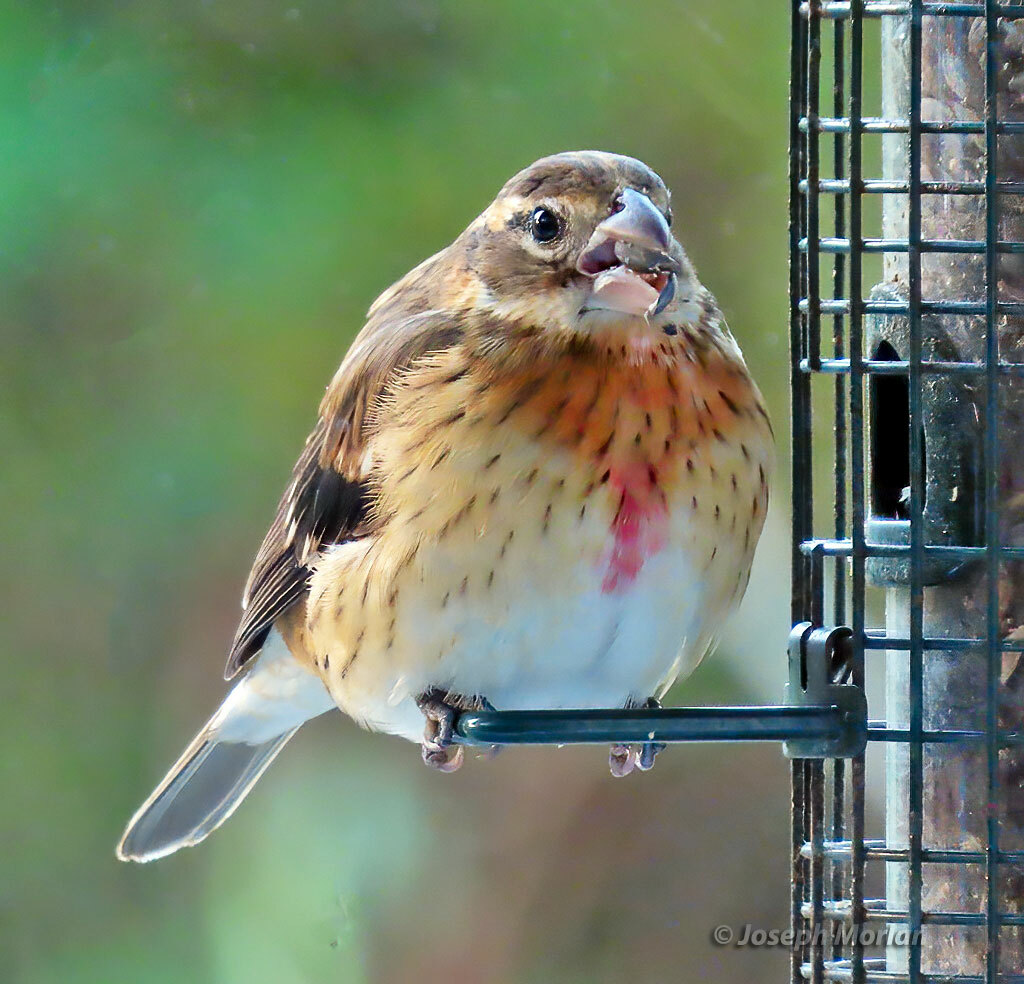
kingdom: Animalia
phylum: Chordata
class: Aves
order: Passeriformes
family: Cardinalidae
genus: Pheucticus
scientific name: Pheucticus ludovicianus
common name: Rose-breasted grosbeak
